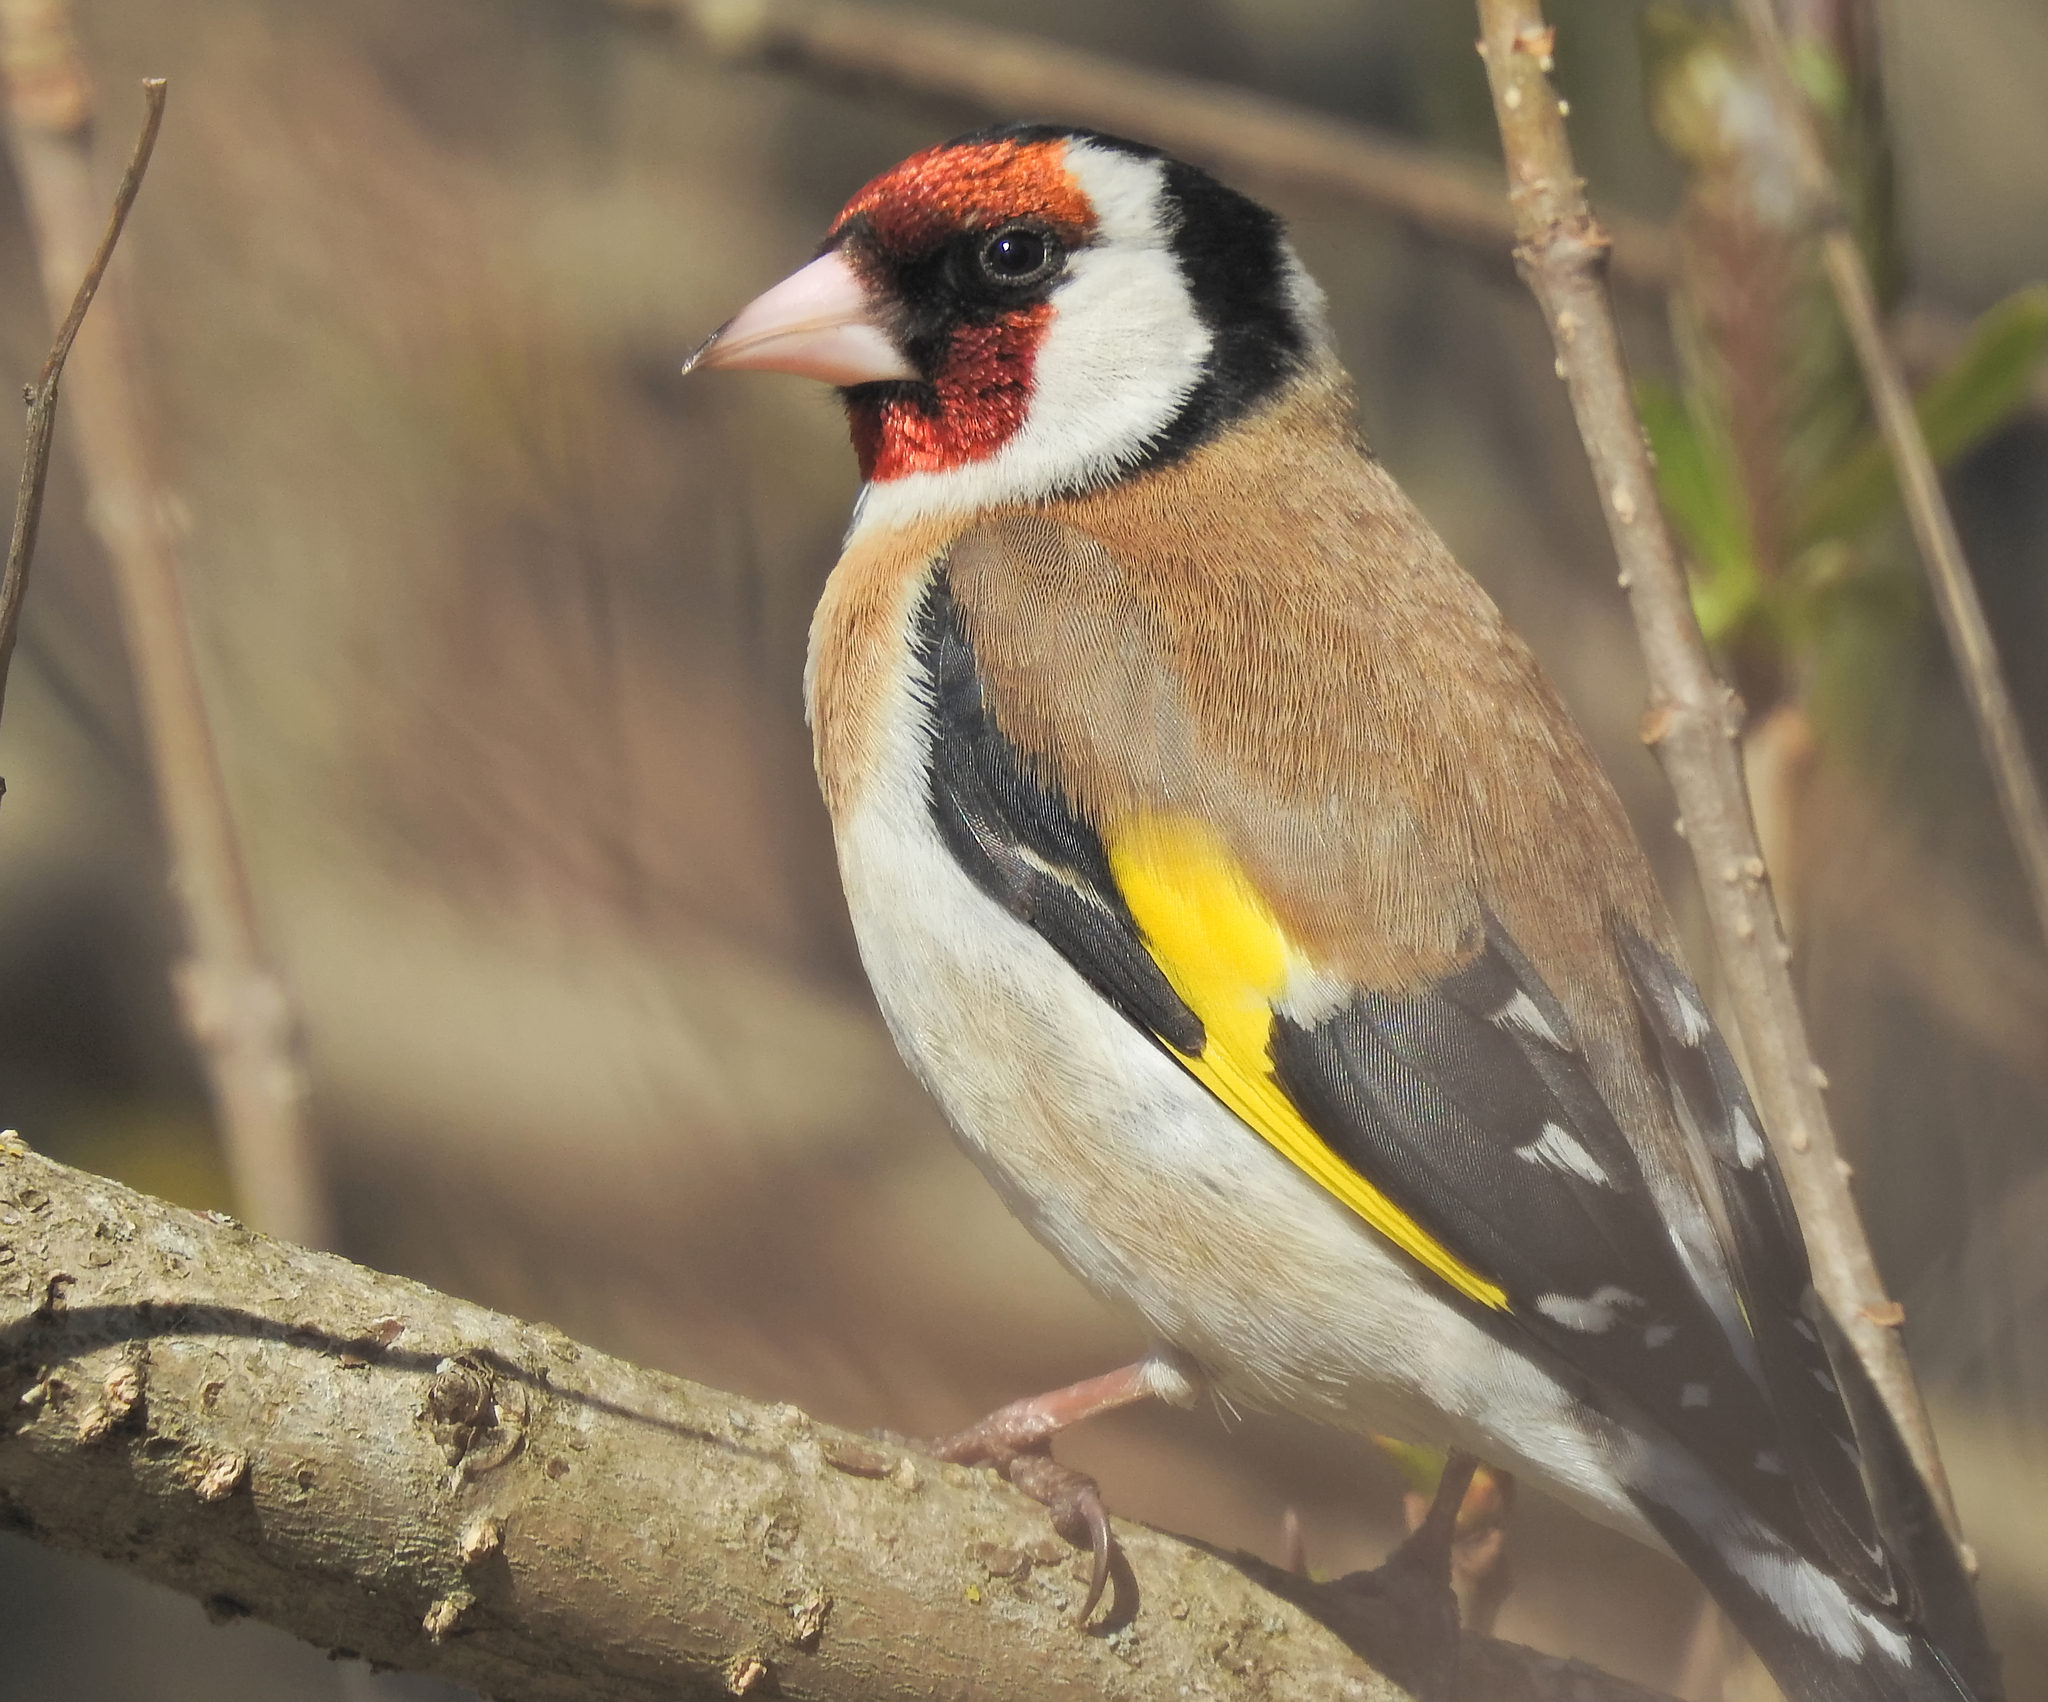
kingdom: Animalia
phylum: Chordata
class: Aves
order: Passeriformes
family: Fringillidae
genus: Carduelis
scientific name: Carduelis carduelis
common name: European goldfinch
